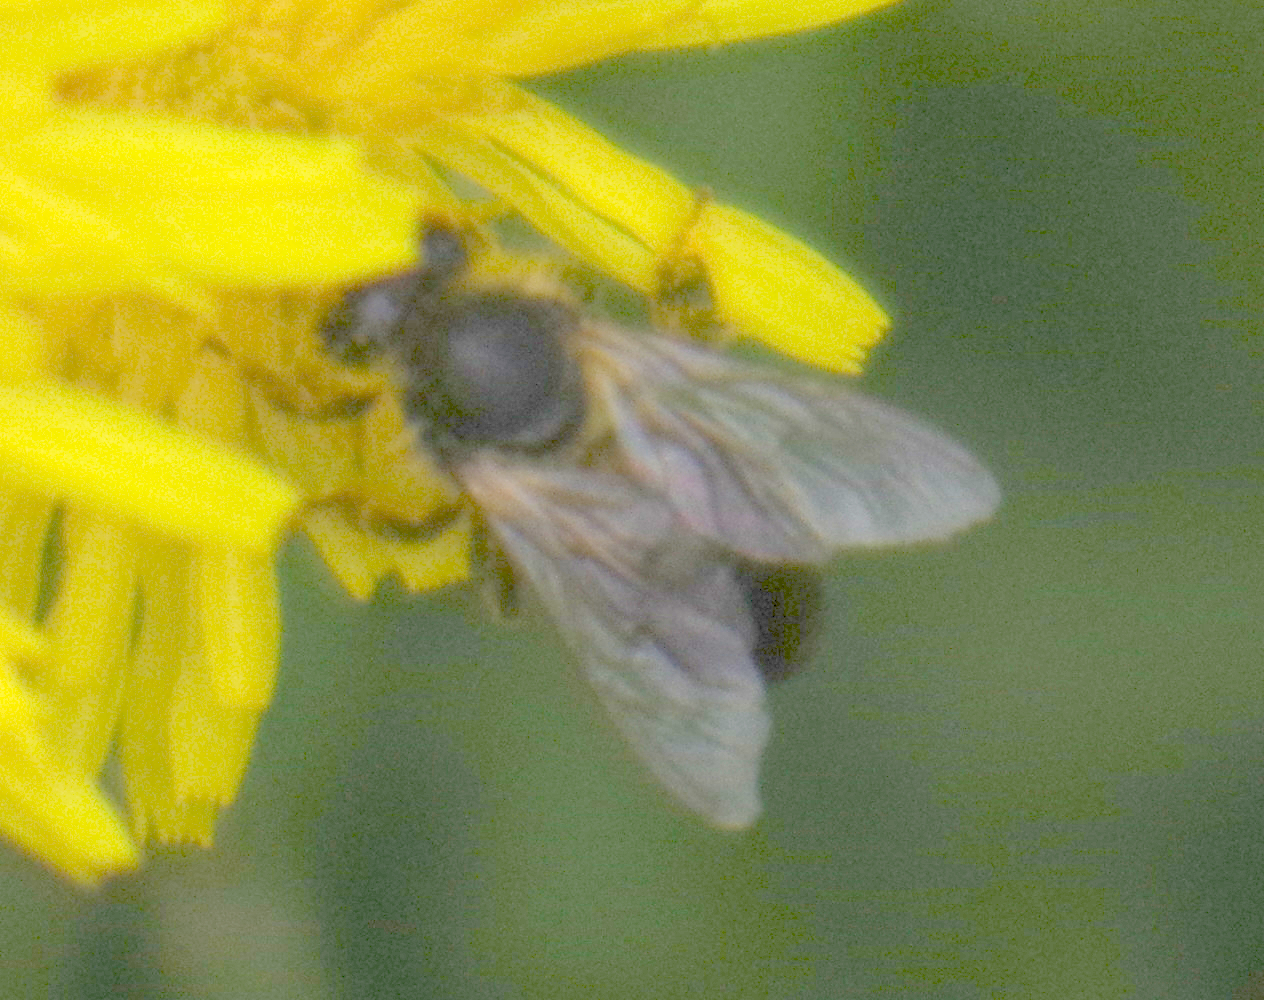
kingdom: Animalia
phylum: Arthropoda
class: Insecta
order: Hymenoptera
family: Apidae
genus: Apis
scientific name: Apis mellifera
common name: Honey bee
